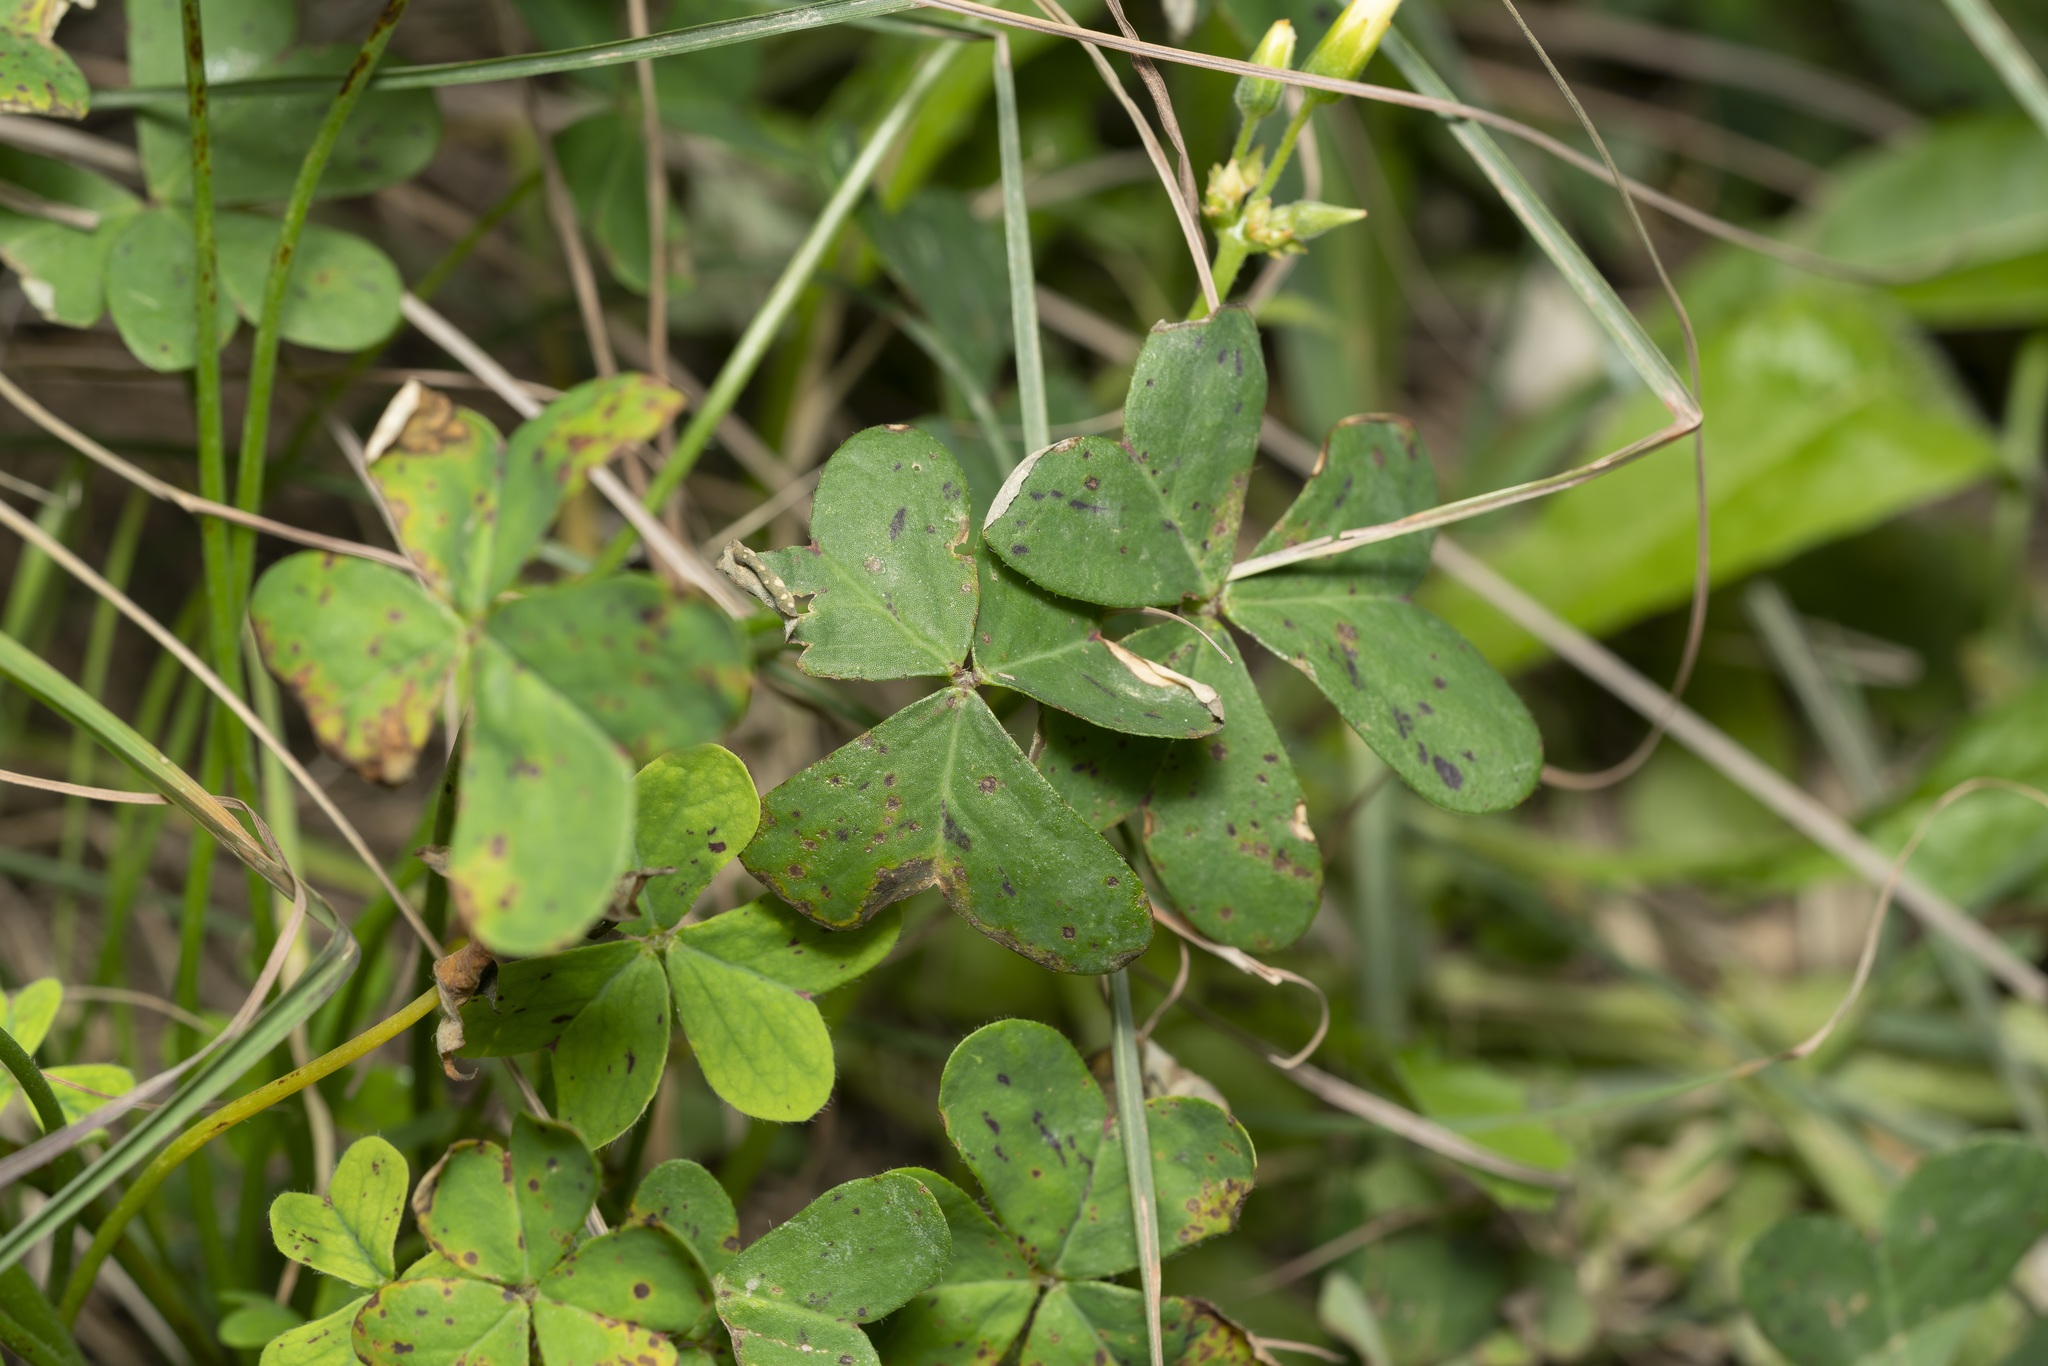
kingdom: Plantae
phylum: Tracheophyta
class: Magnoliopsida
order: Oxalidales
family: Oxalidaceae
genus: Oxalis
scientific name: Oxalis pes-caprae
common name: Bermuda-buttercup
